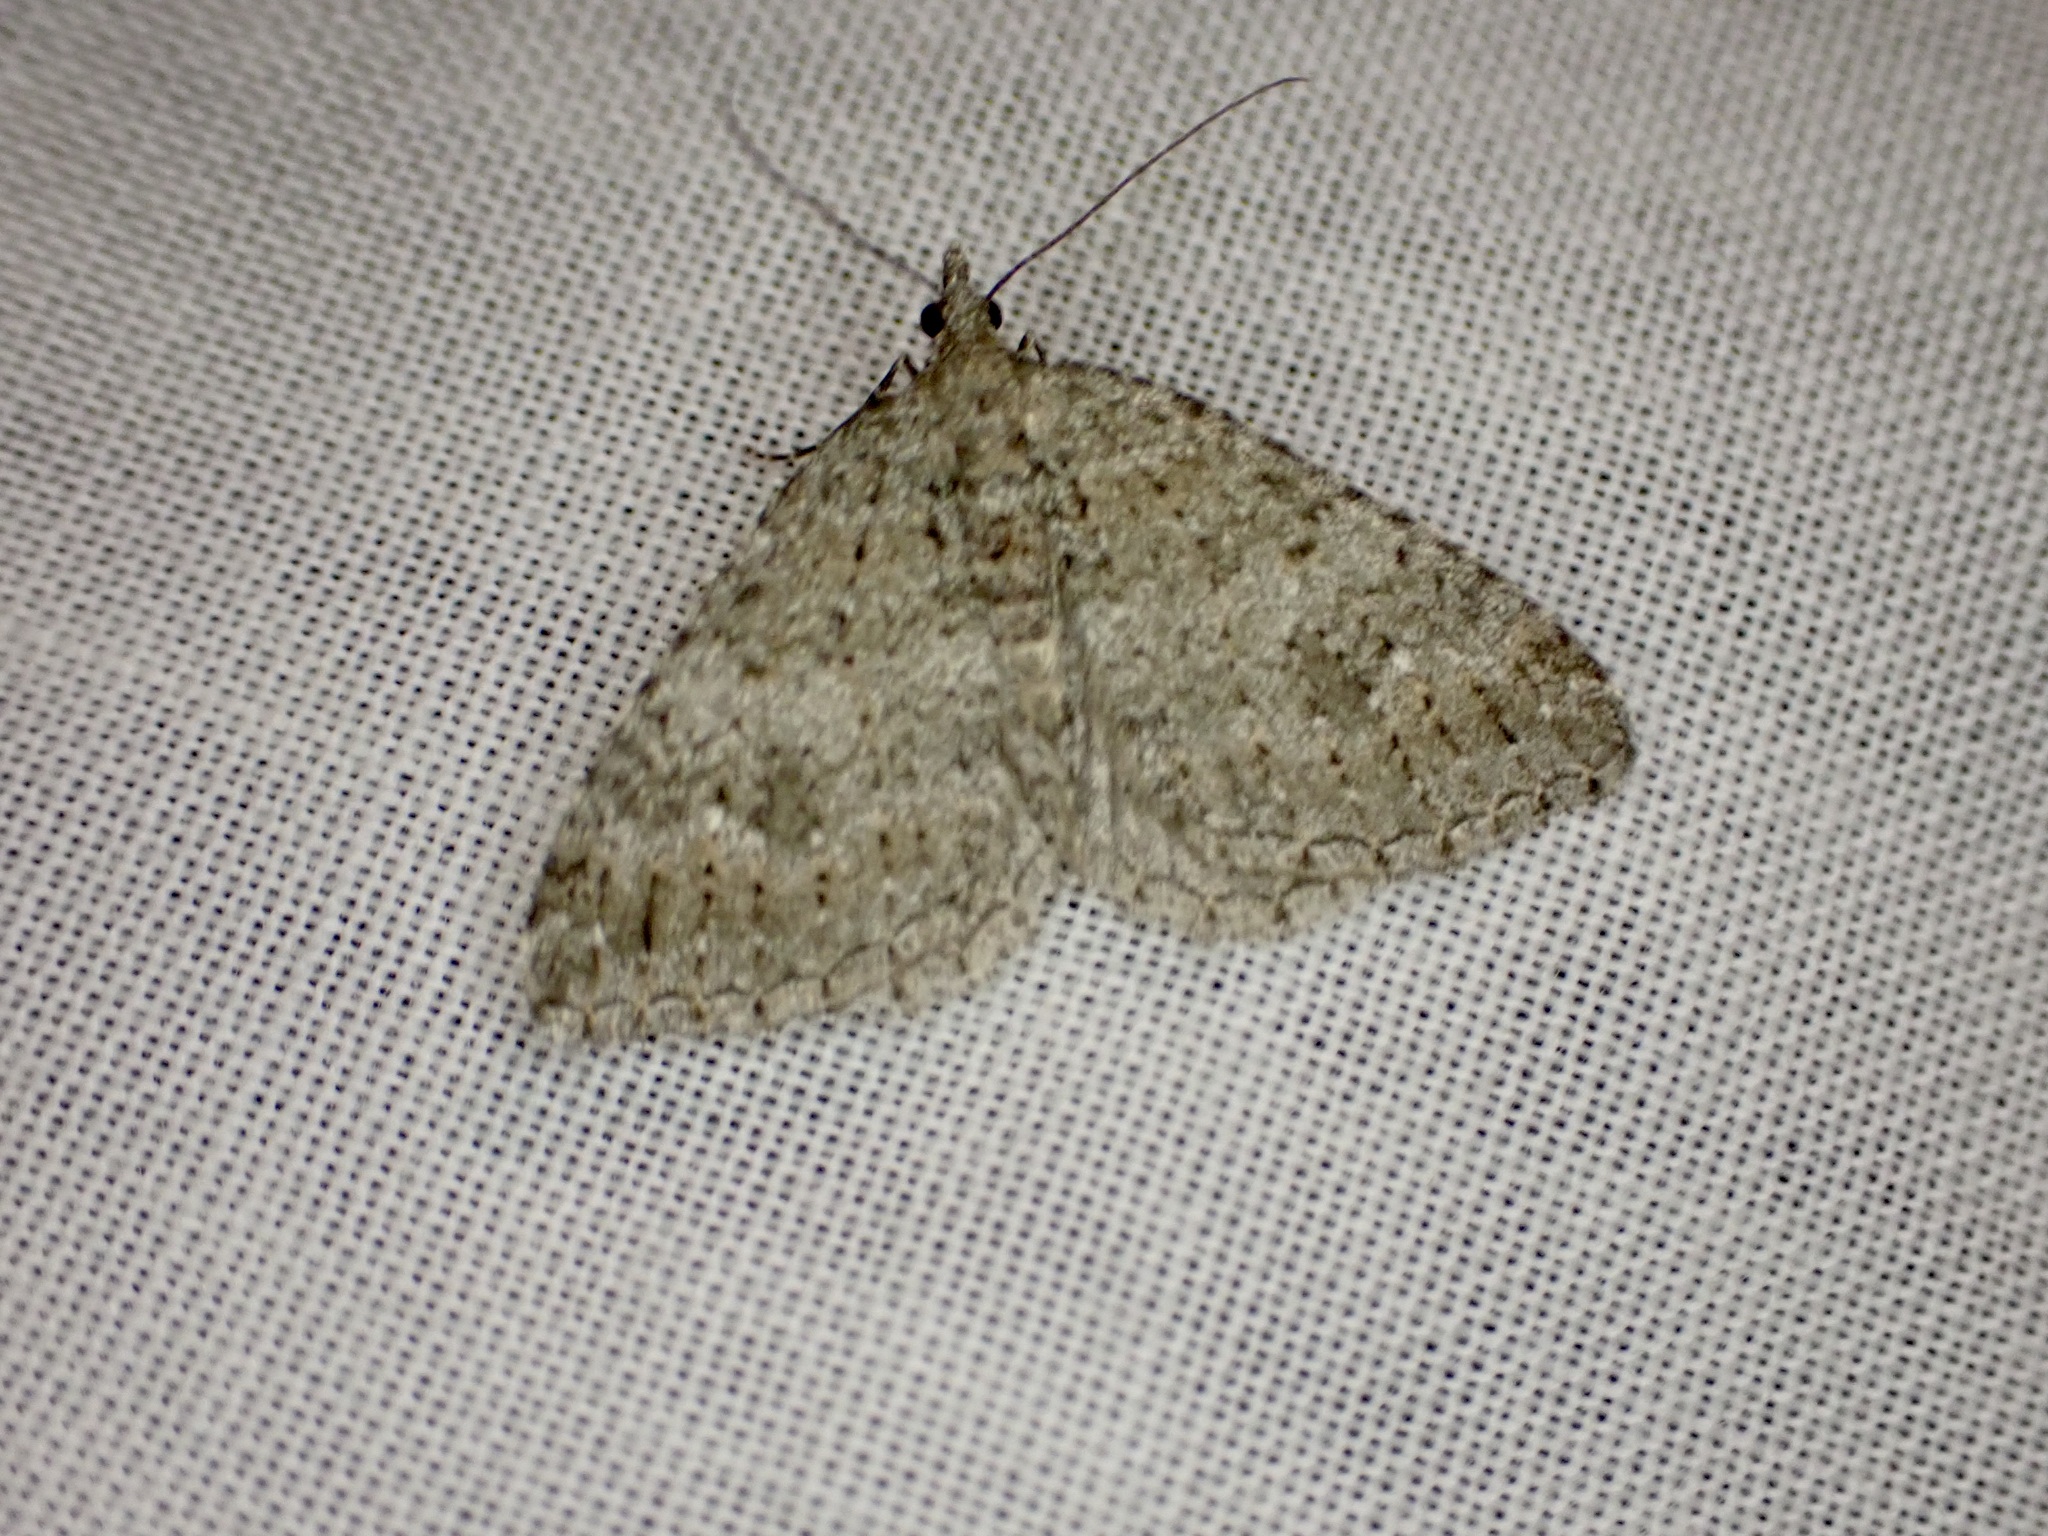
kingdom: Animalia
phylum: Arthropoda
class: Insecta
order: Lepidoptera
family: Geometridae
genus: Helastia
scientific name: Helastia corcularia
